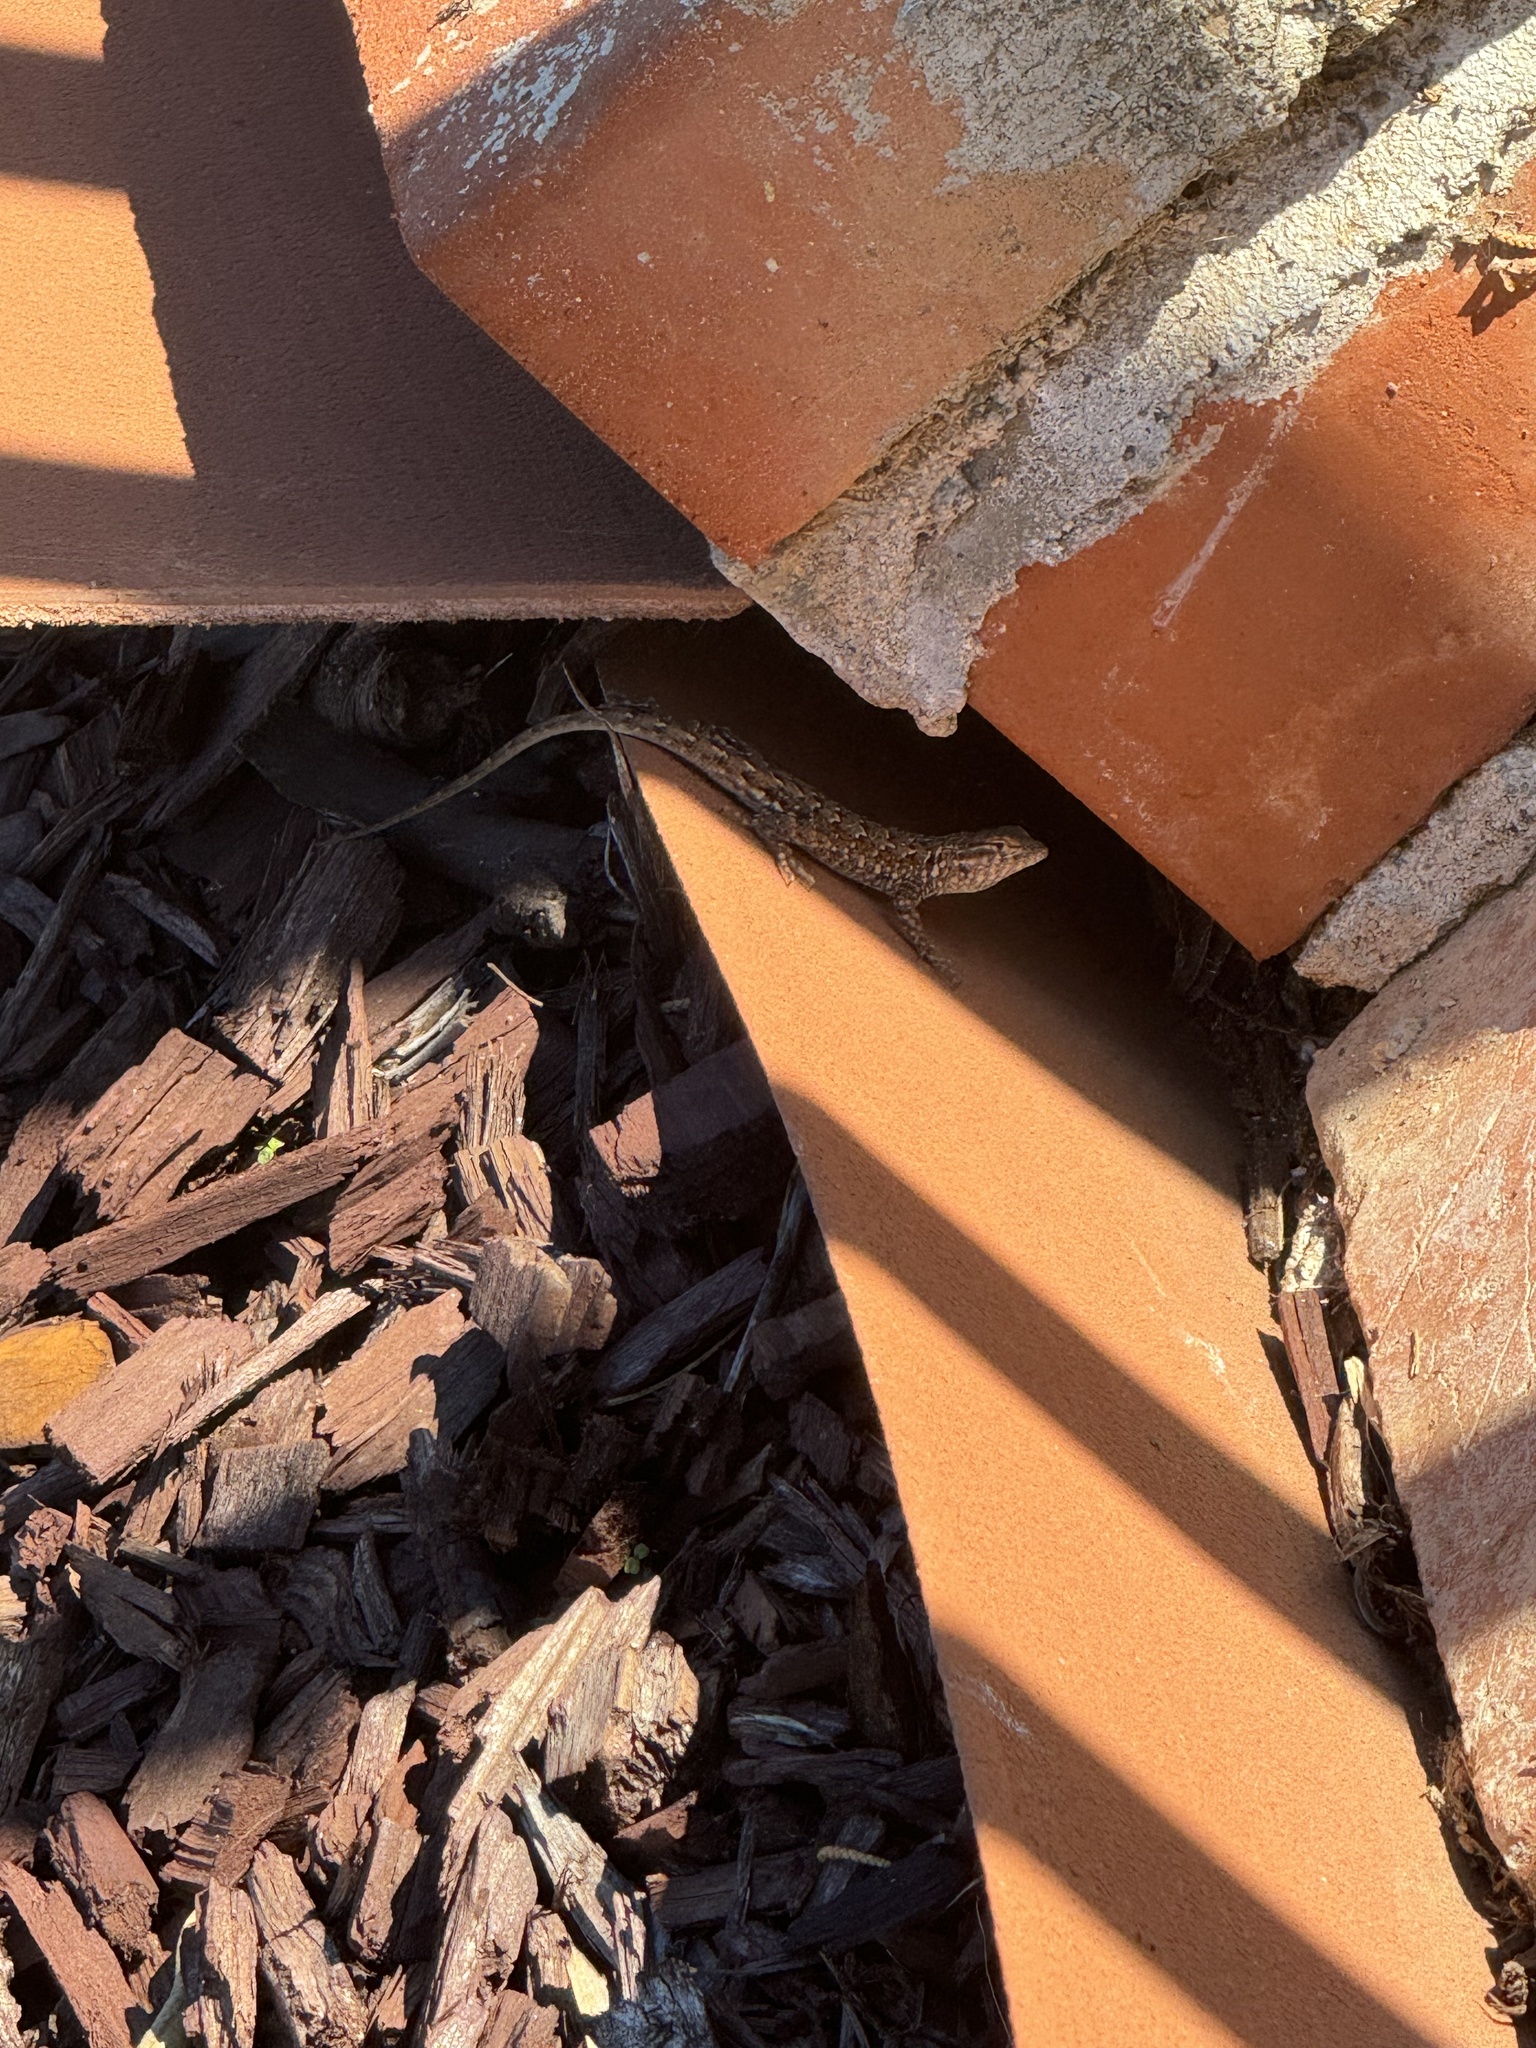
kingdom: Animalia
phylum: Chordata
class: Squamata
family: Phrynosomatidae
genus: Uta
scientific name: Uta stansburiana
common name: Side-blotched lizard
